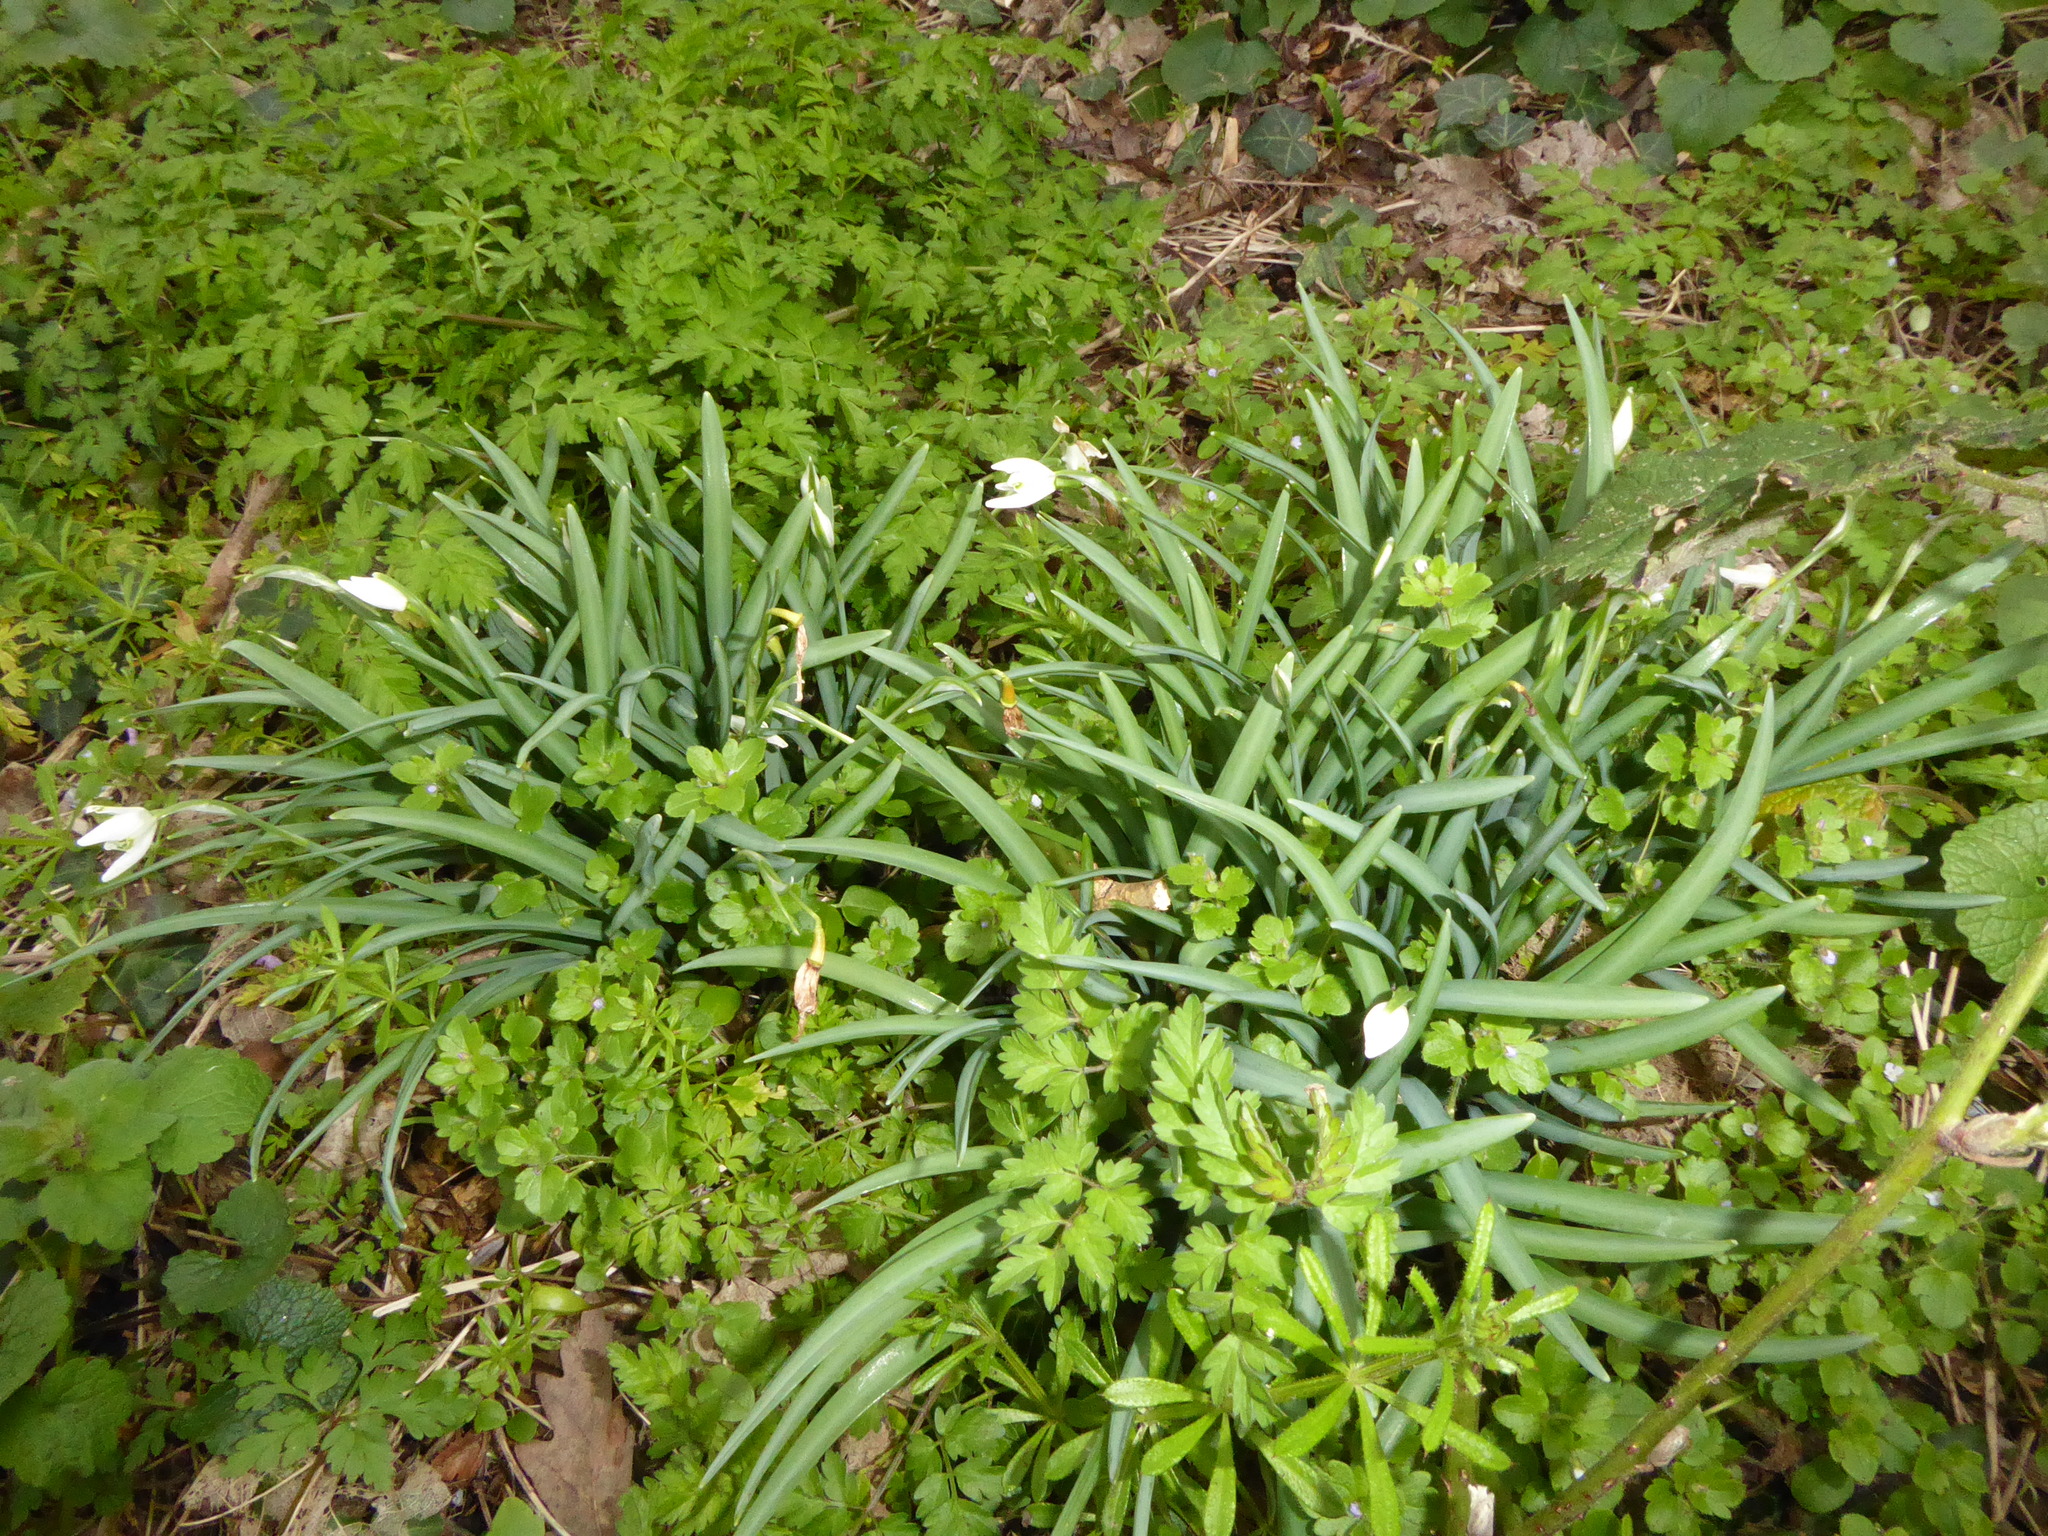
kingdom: Plantae
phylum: Tracheophyta
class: Liliopsida
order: Asparagales
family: Amaryllidaceae
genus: Galanthus
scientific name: Galanthus nivalis
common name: Snowdrop
